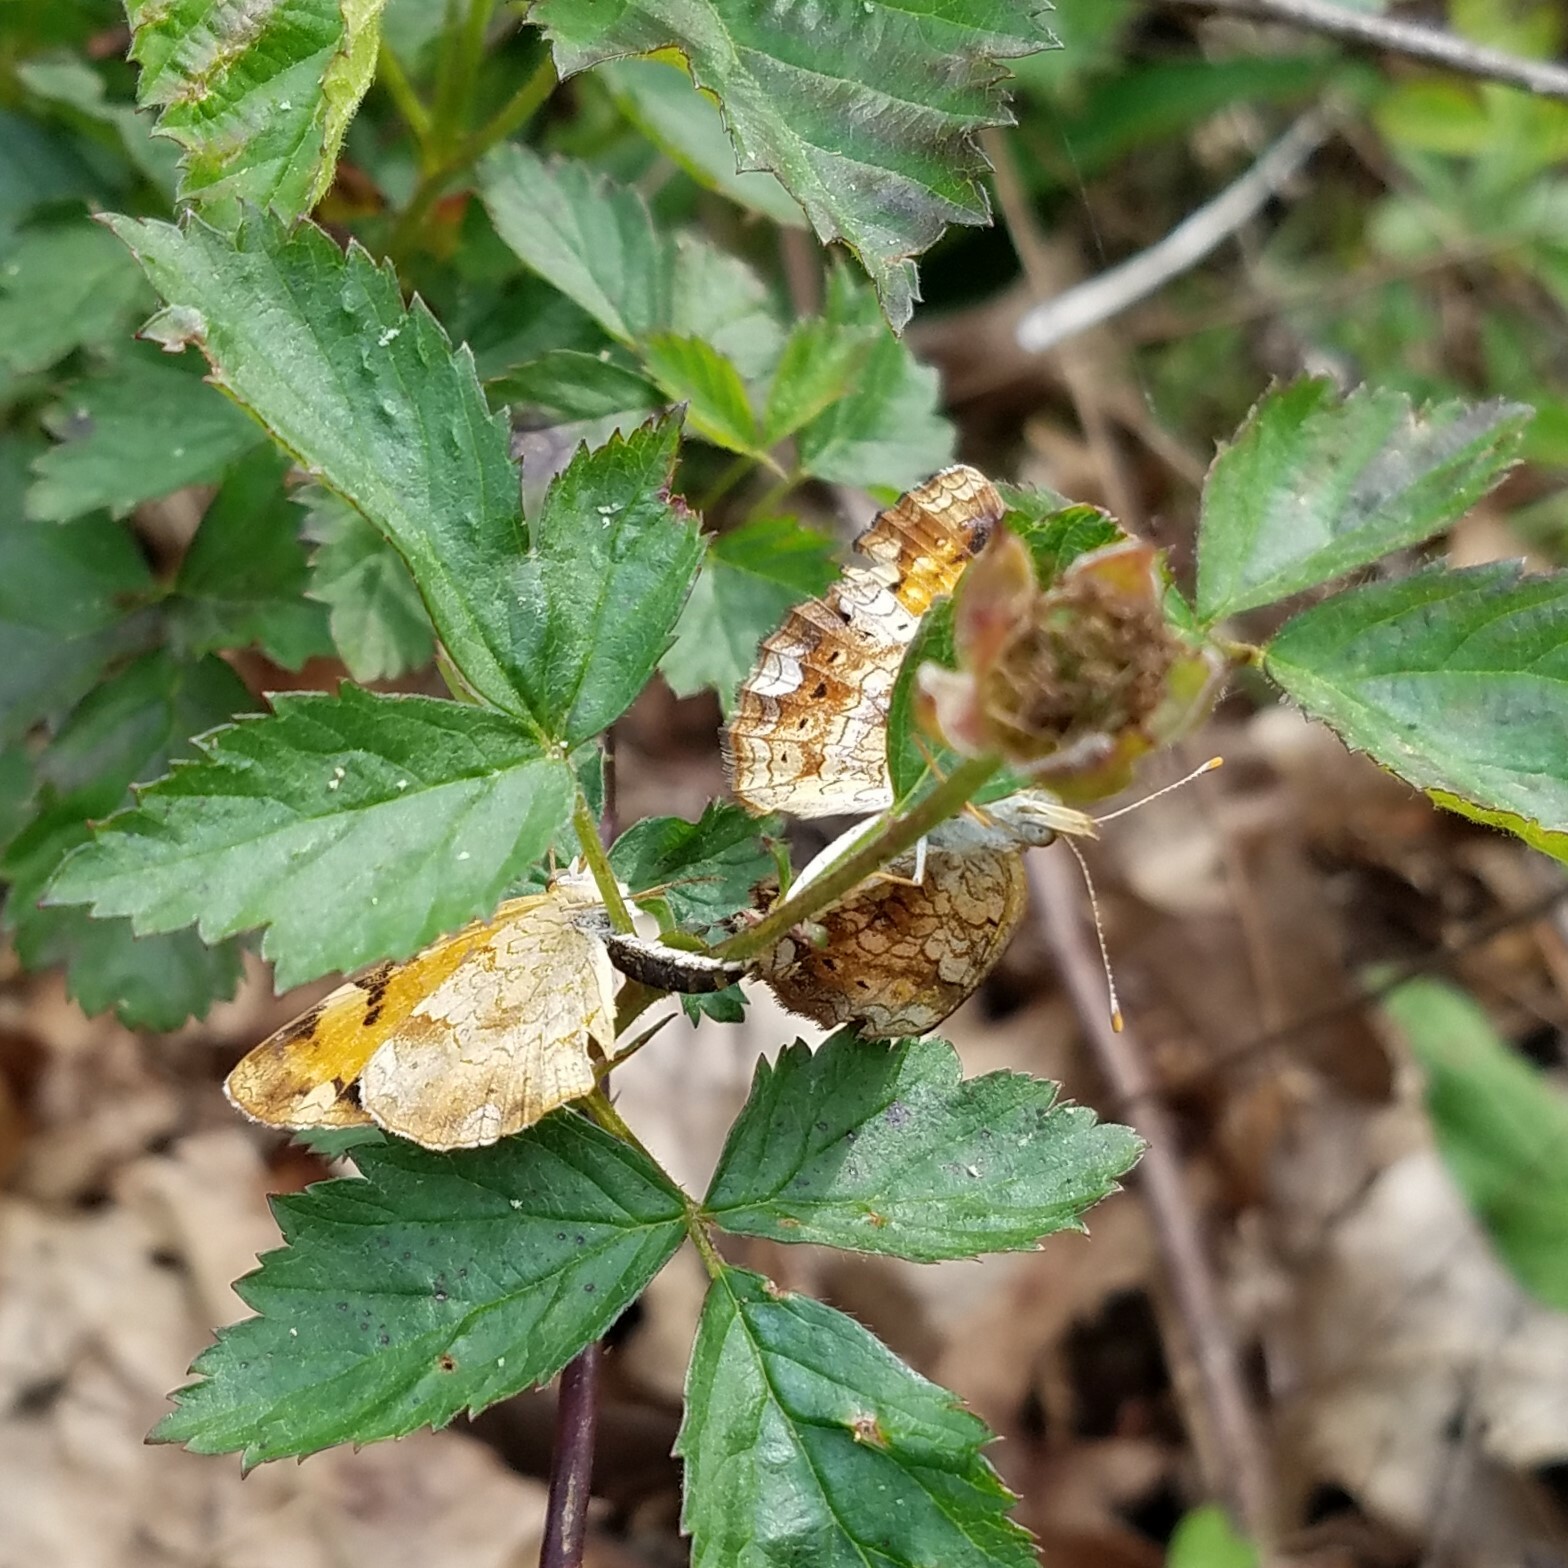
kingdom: Animalia
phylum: Arthropoda
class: Insecta
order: Lepidoptera
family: Nymphalidae
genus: Phyciodes
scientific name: Phyciodes tharos
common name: Pearl crescent
